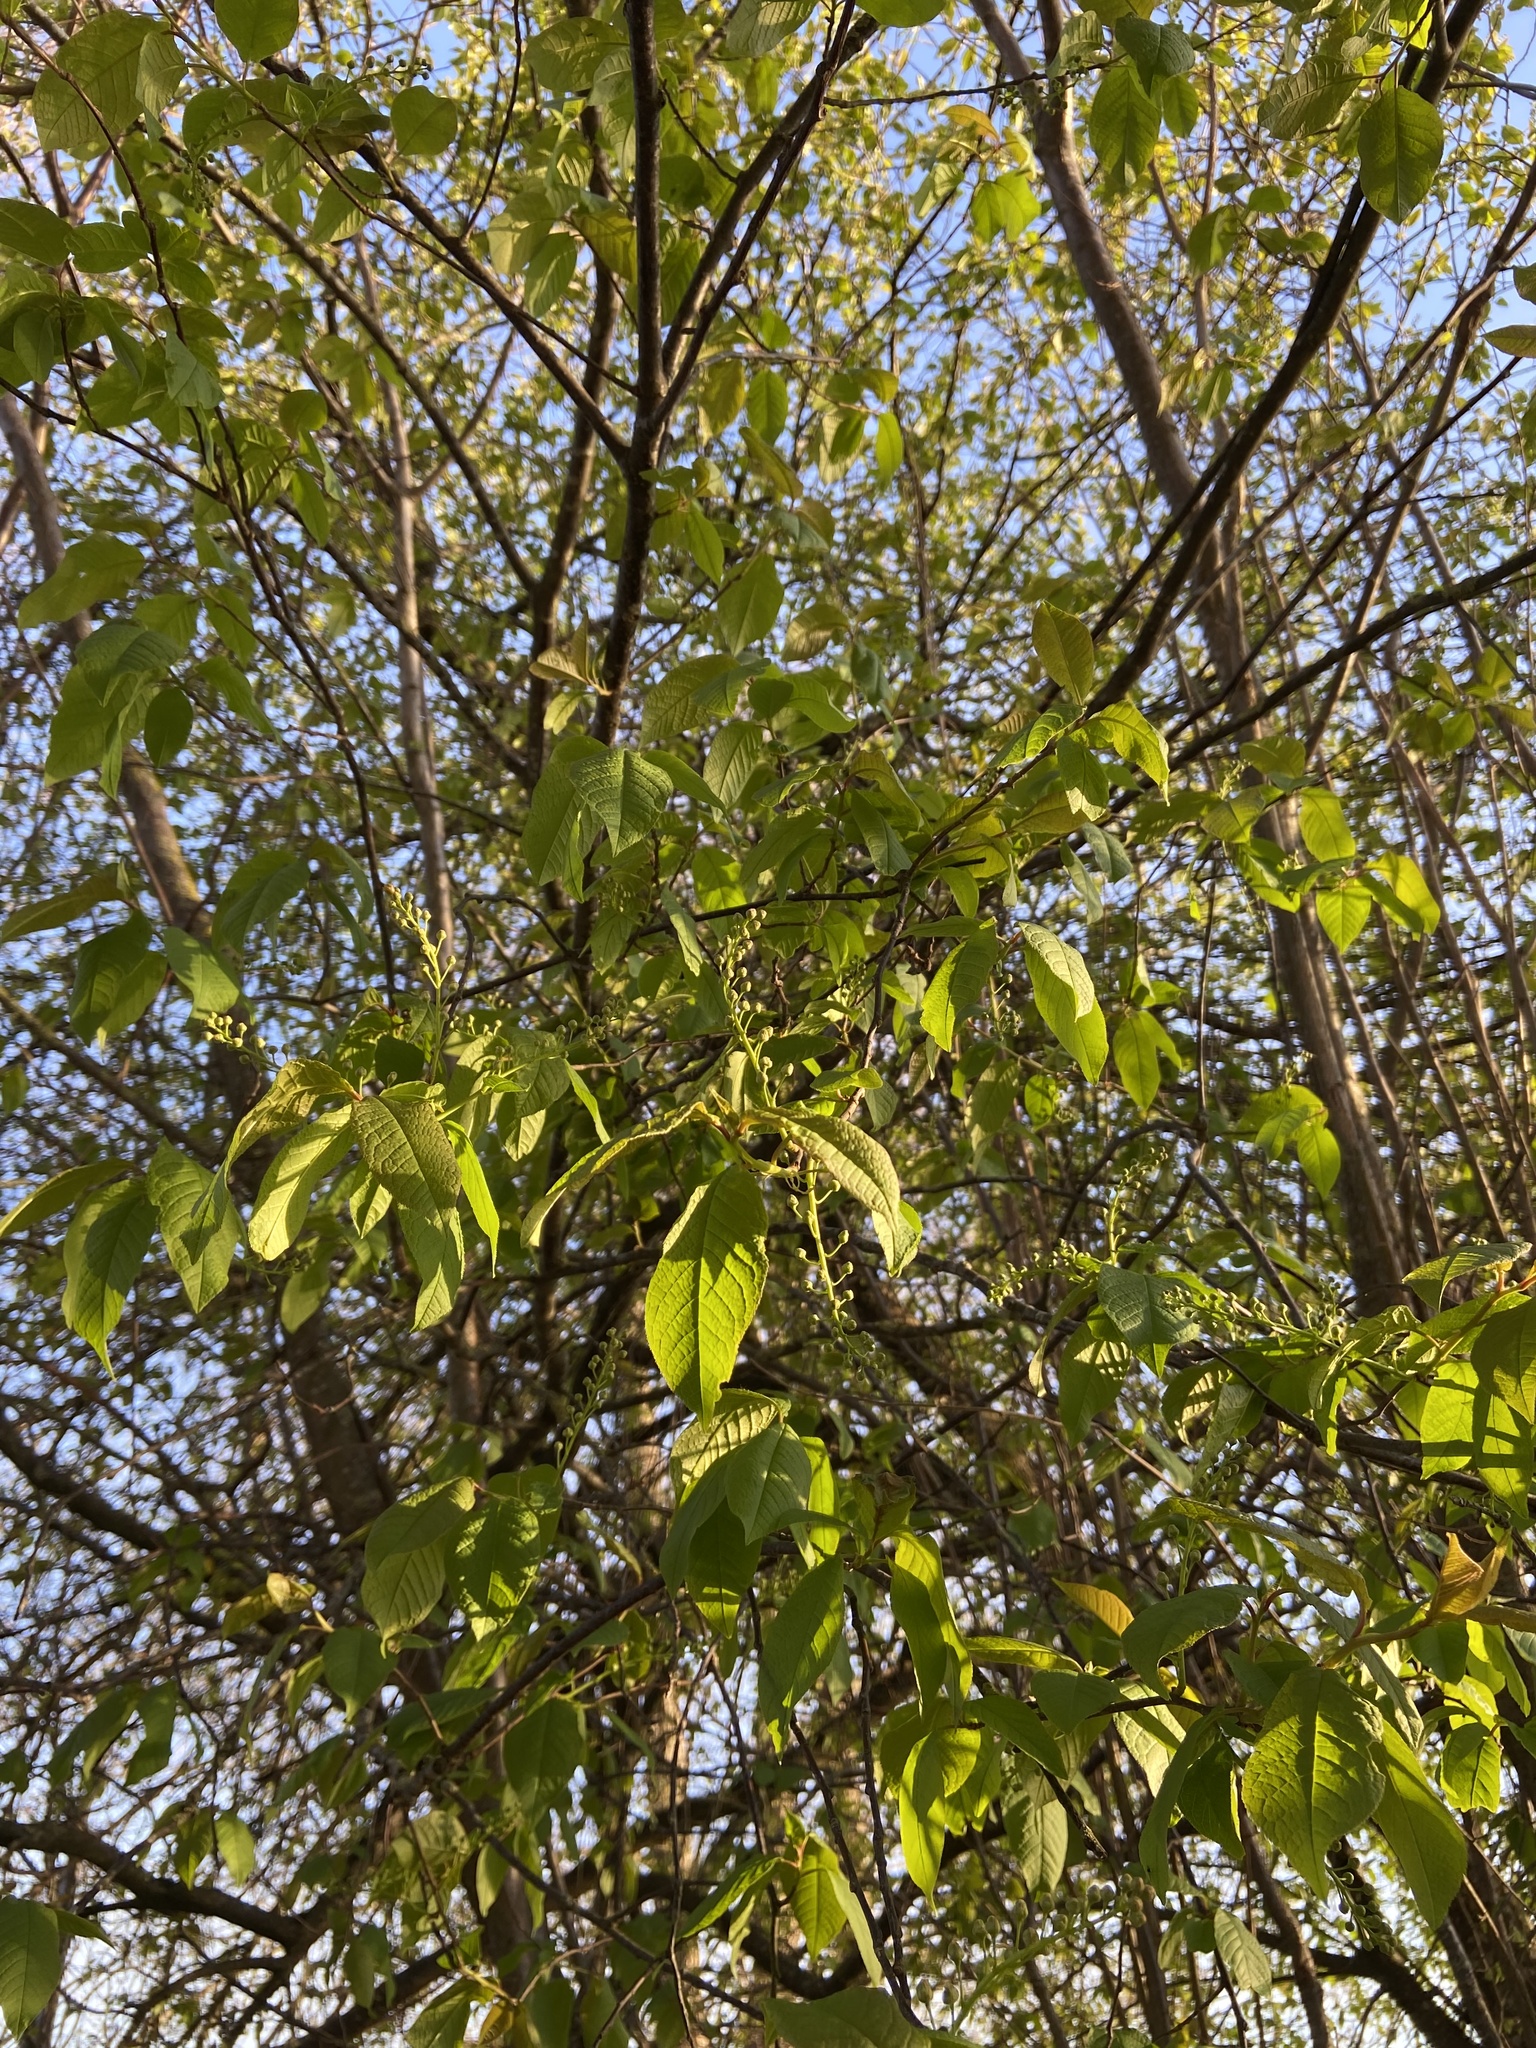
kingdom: Plantae
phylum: Tracheophyta
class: Magnoliopsida
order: Rosales
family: Rosaceae
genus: Prunus
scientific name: Prunus padus
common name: Bird cherry
